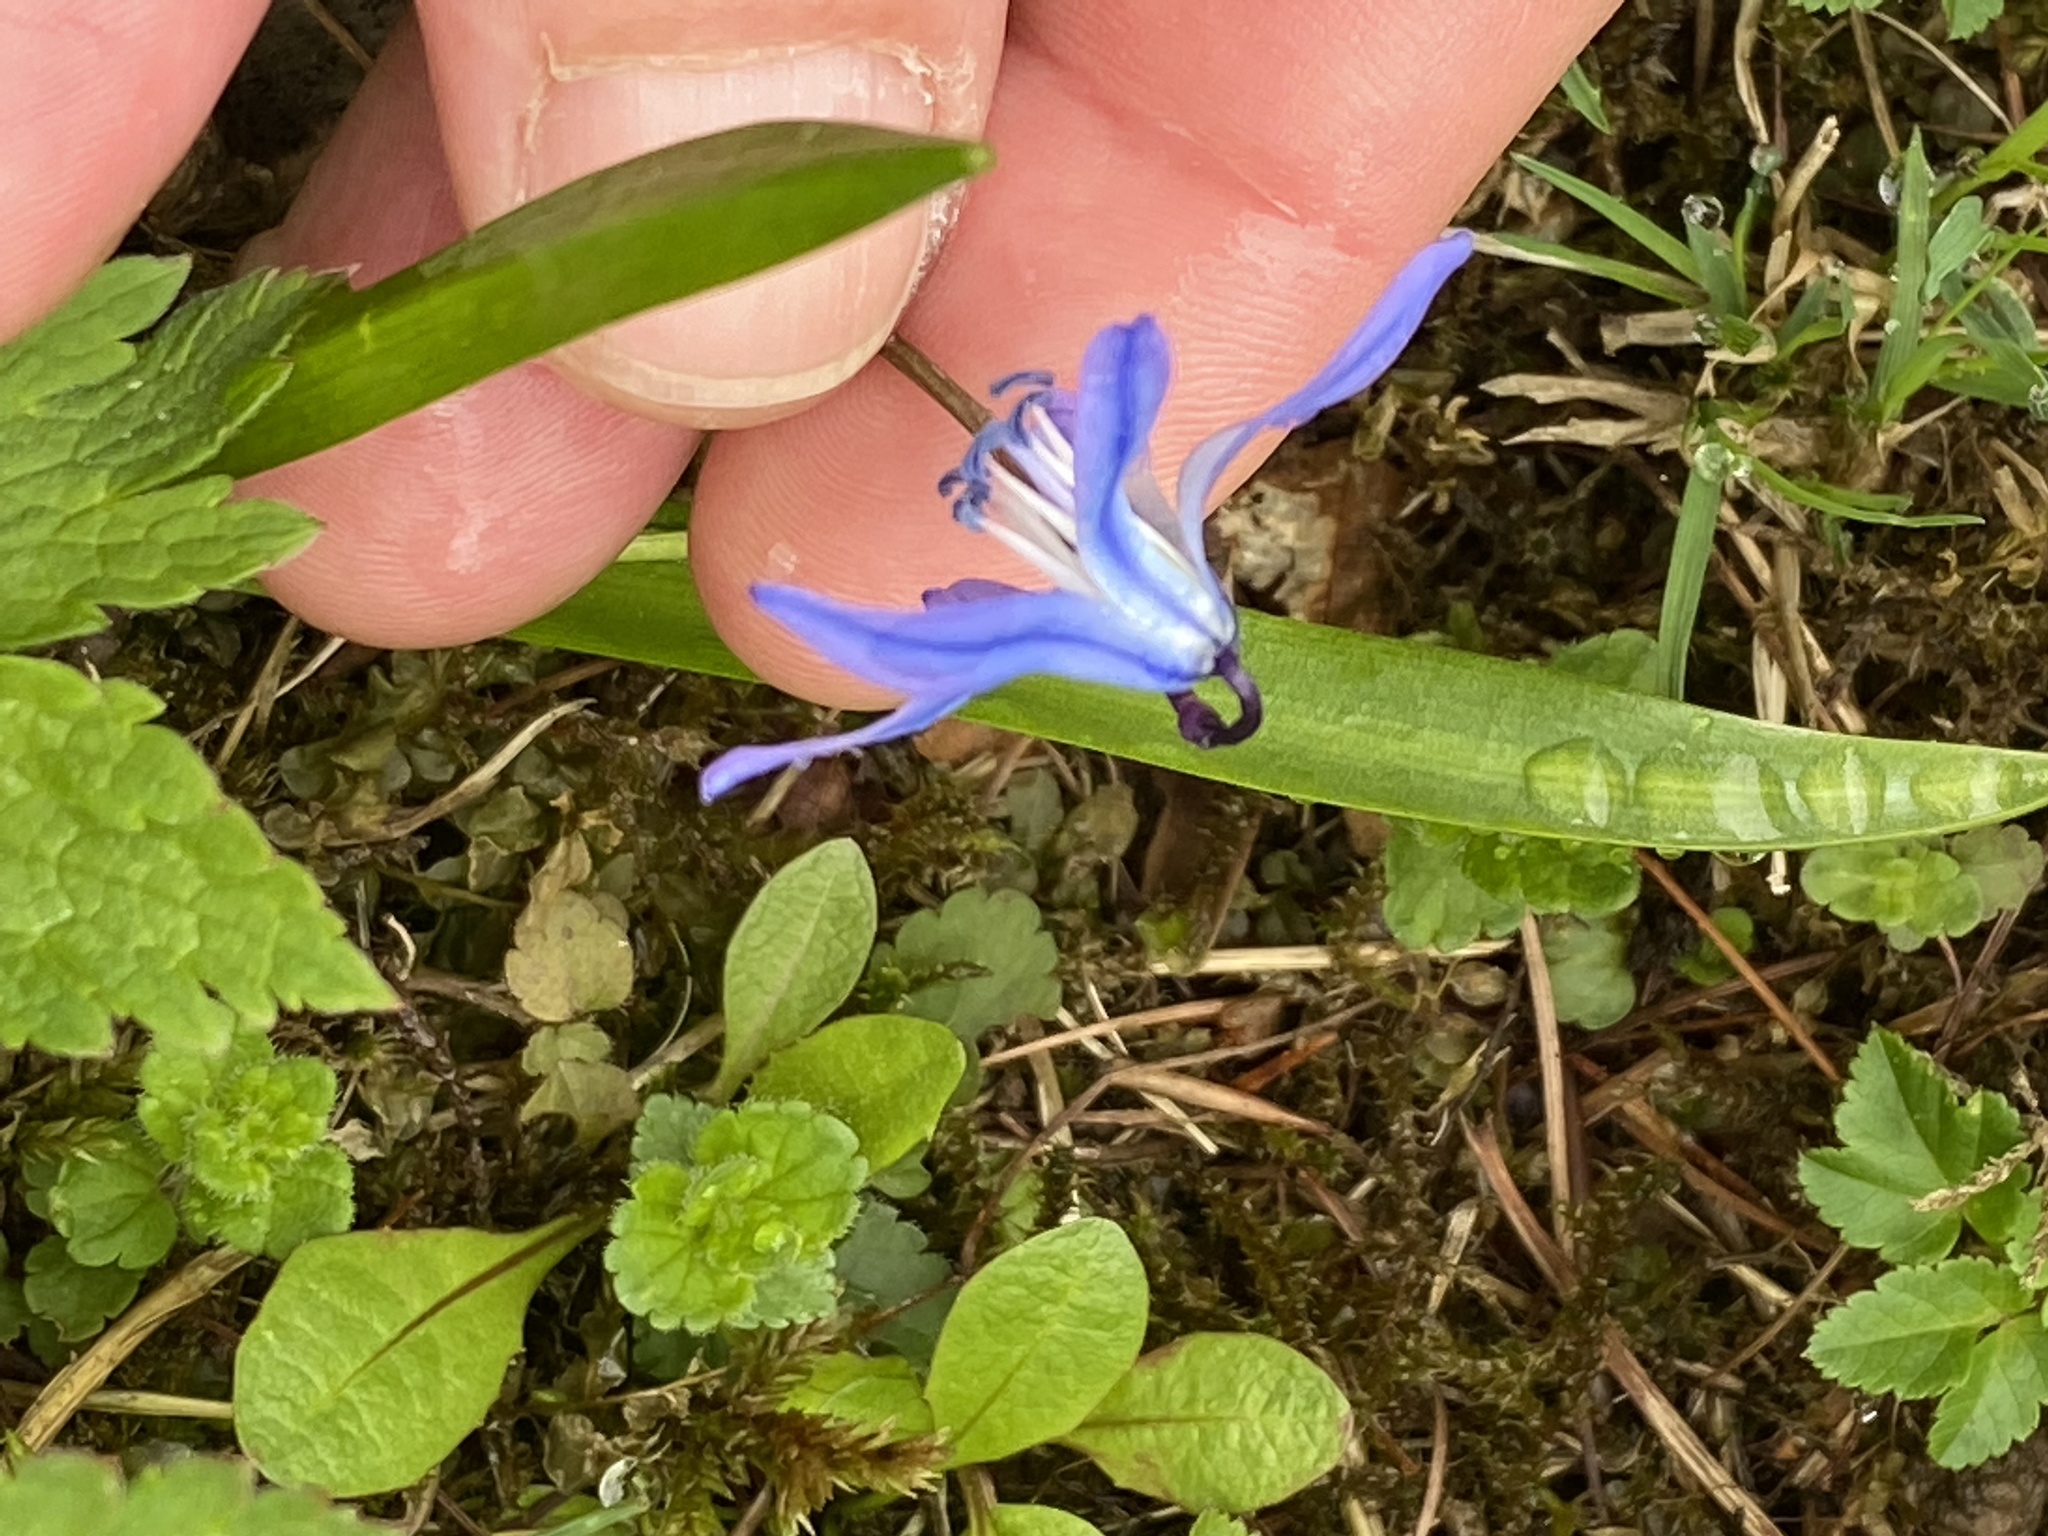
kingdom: Plantae
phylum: Tracheophyta
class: Liliopsida
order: Asparagales
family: Asparagaceae
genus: Scilla
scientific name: Scilla siberica
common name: Siberian squill
